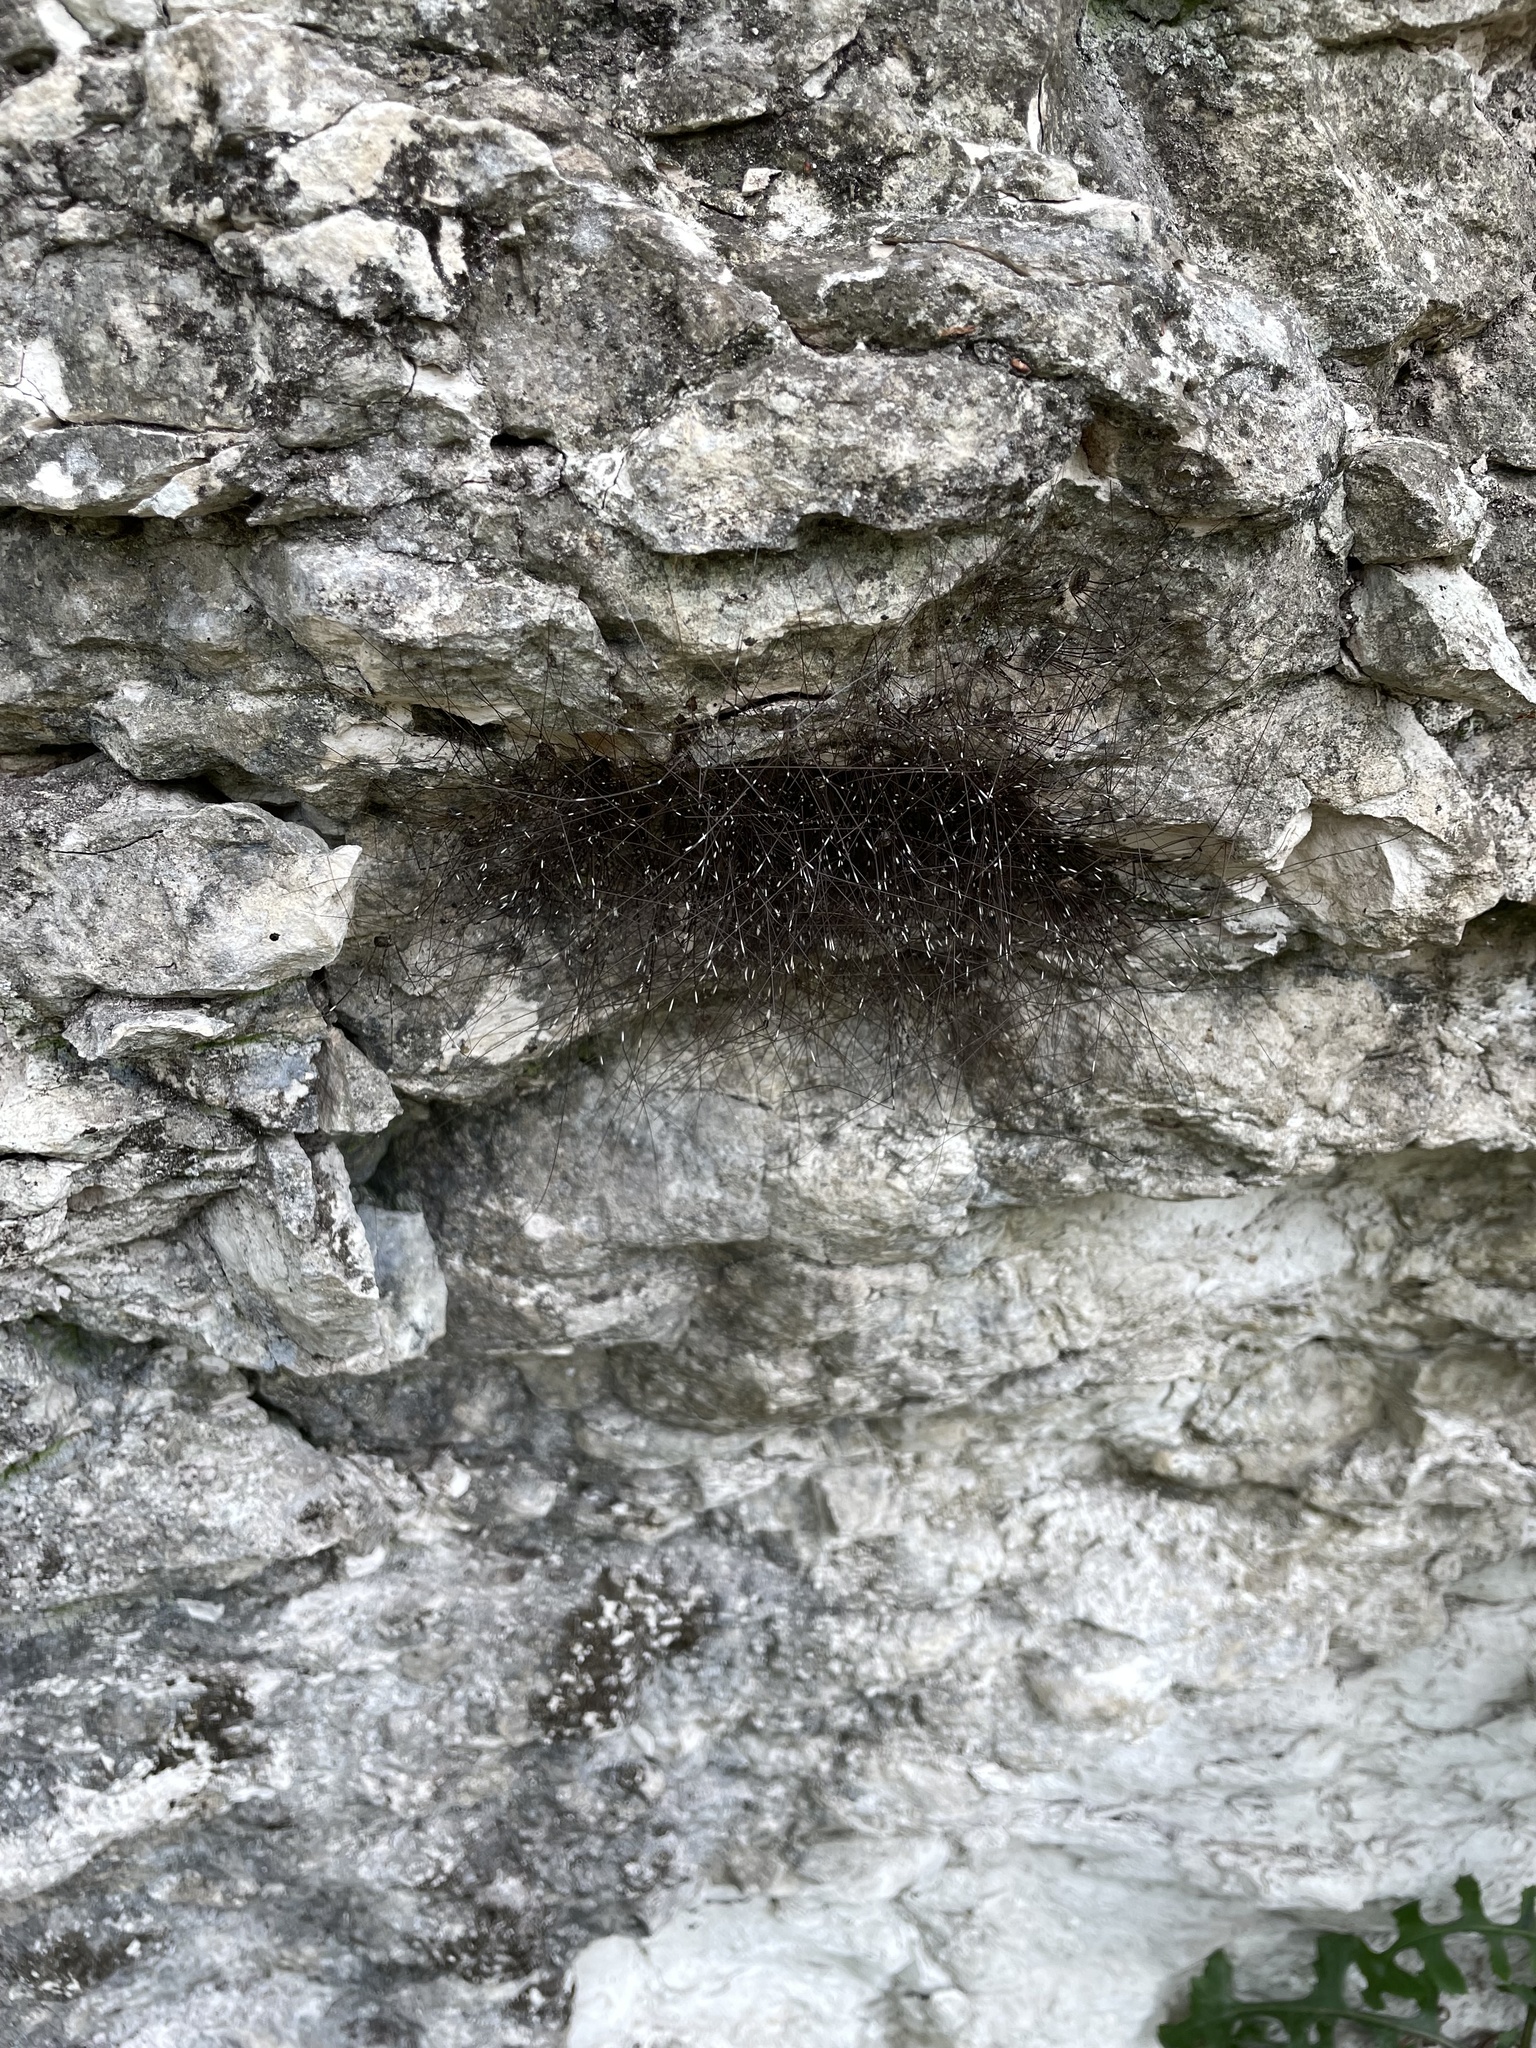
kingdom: Animalia
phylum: Arthropoda
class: Arachnida
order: Opiliones
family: Sclerosomatidae
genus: Leiobunum
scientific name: Leiobunum townsendi
